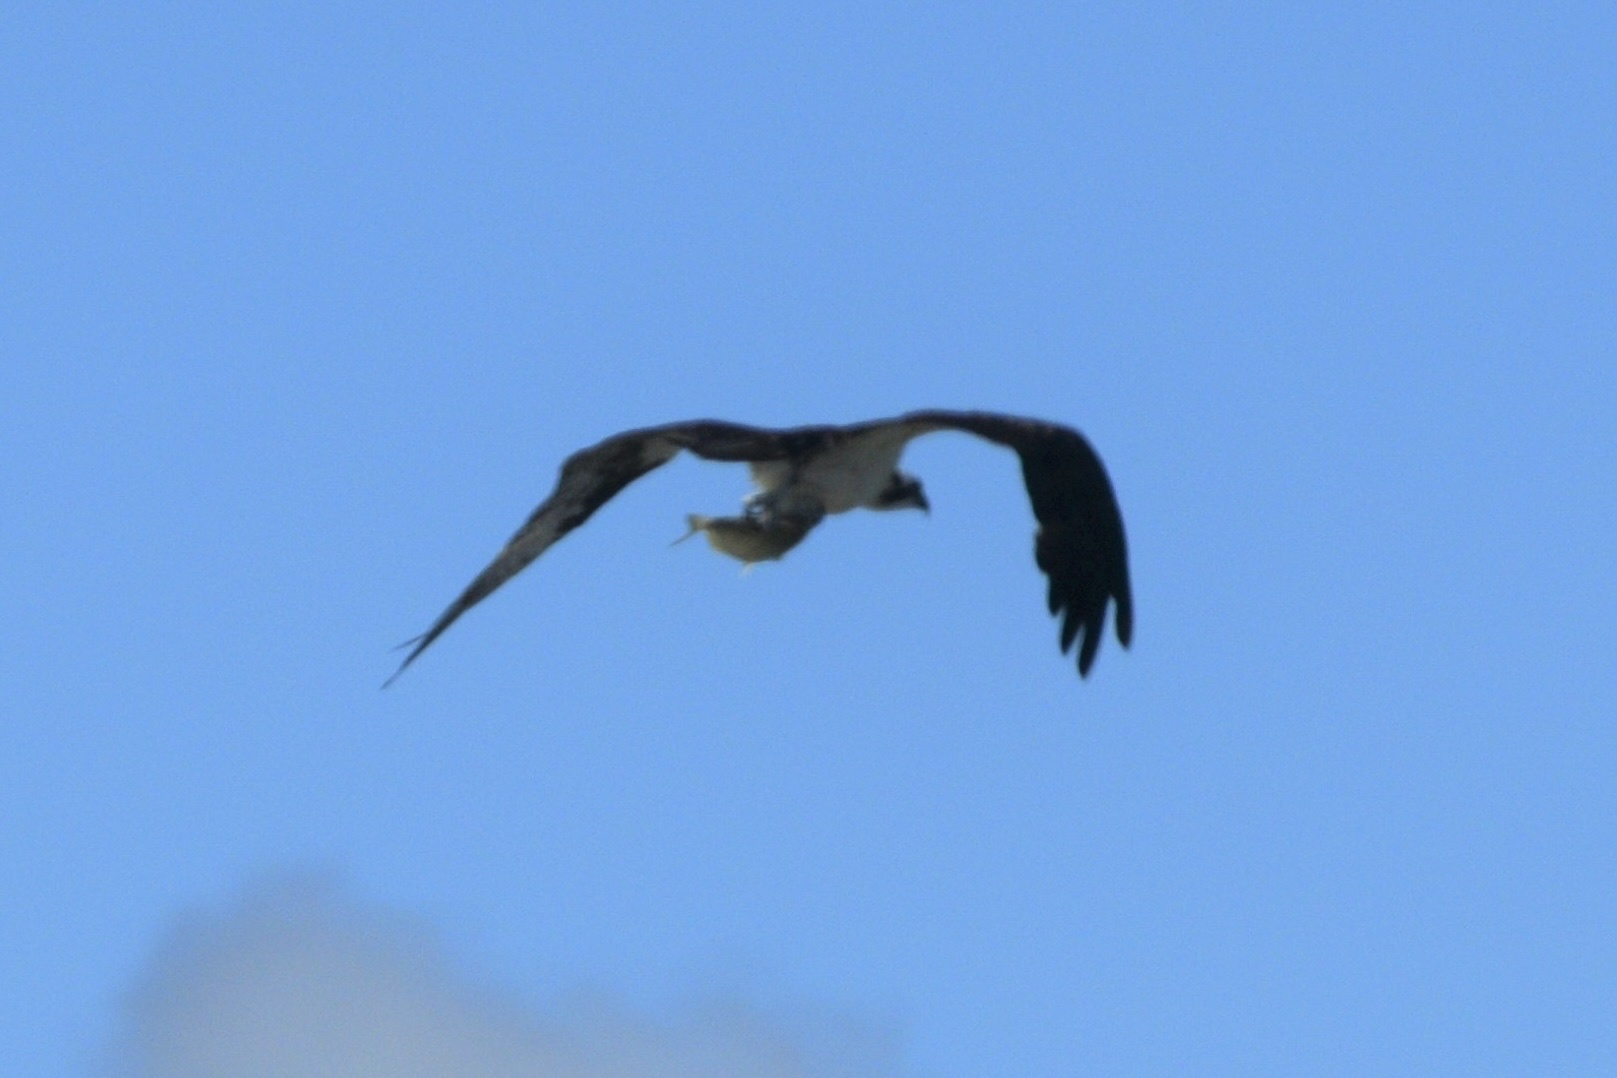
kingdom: Animalia
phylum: Chordata
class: Aves
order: Accipitriformes
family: Pandionidae
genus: Pandion
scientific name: Pandion haliaetus
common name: Osprey
